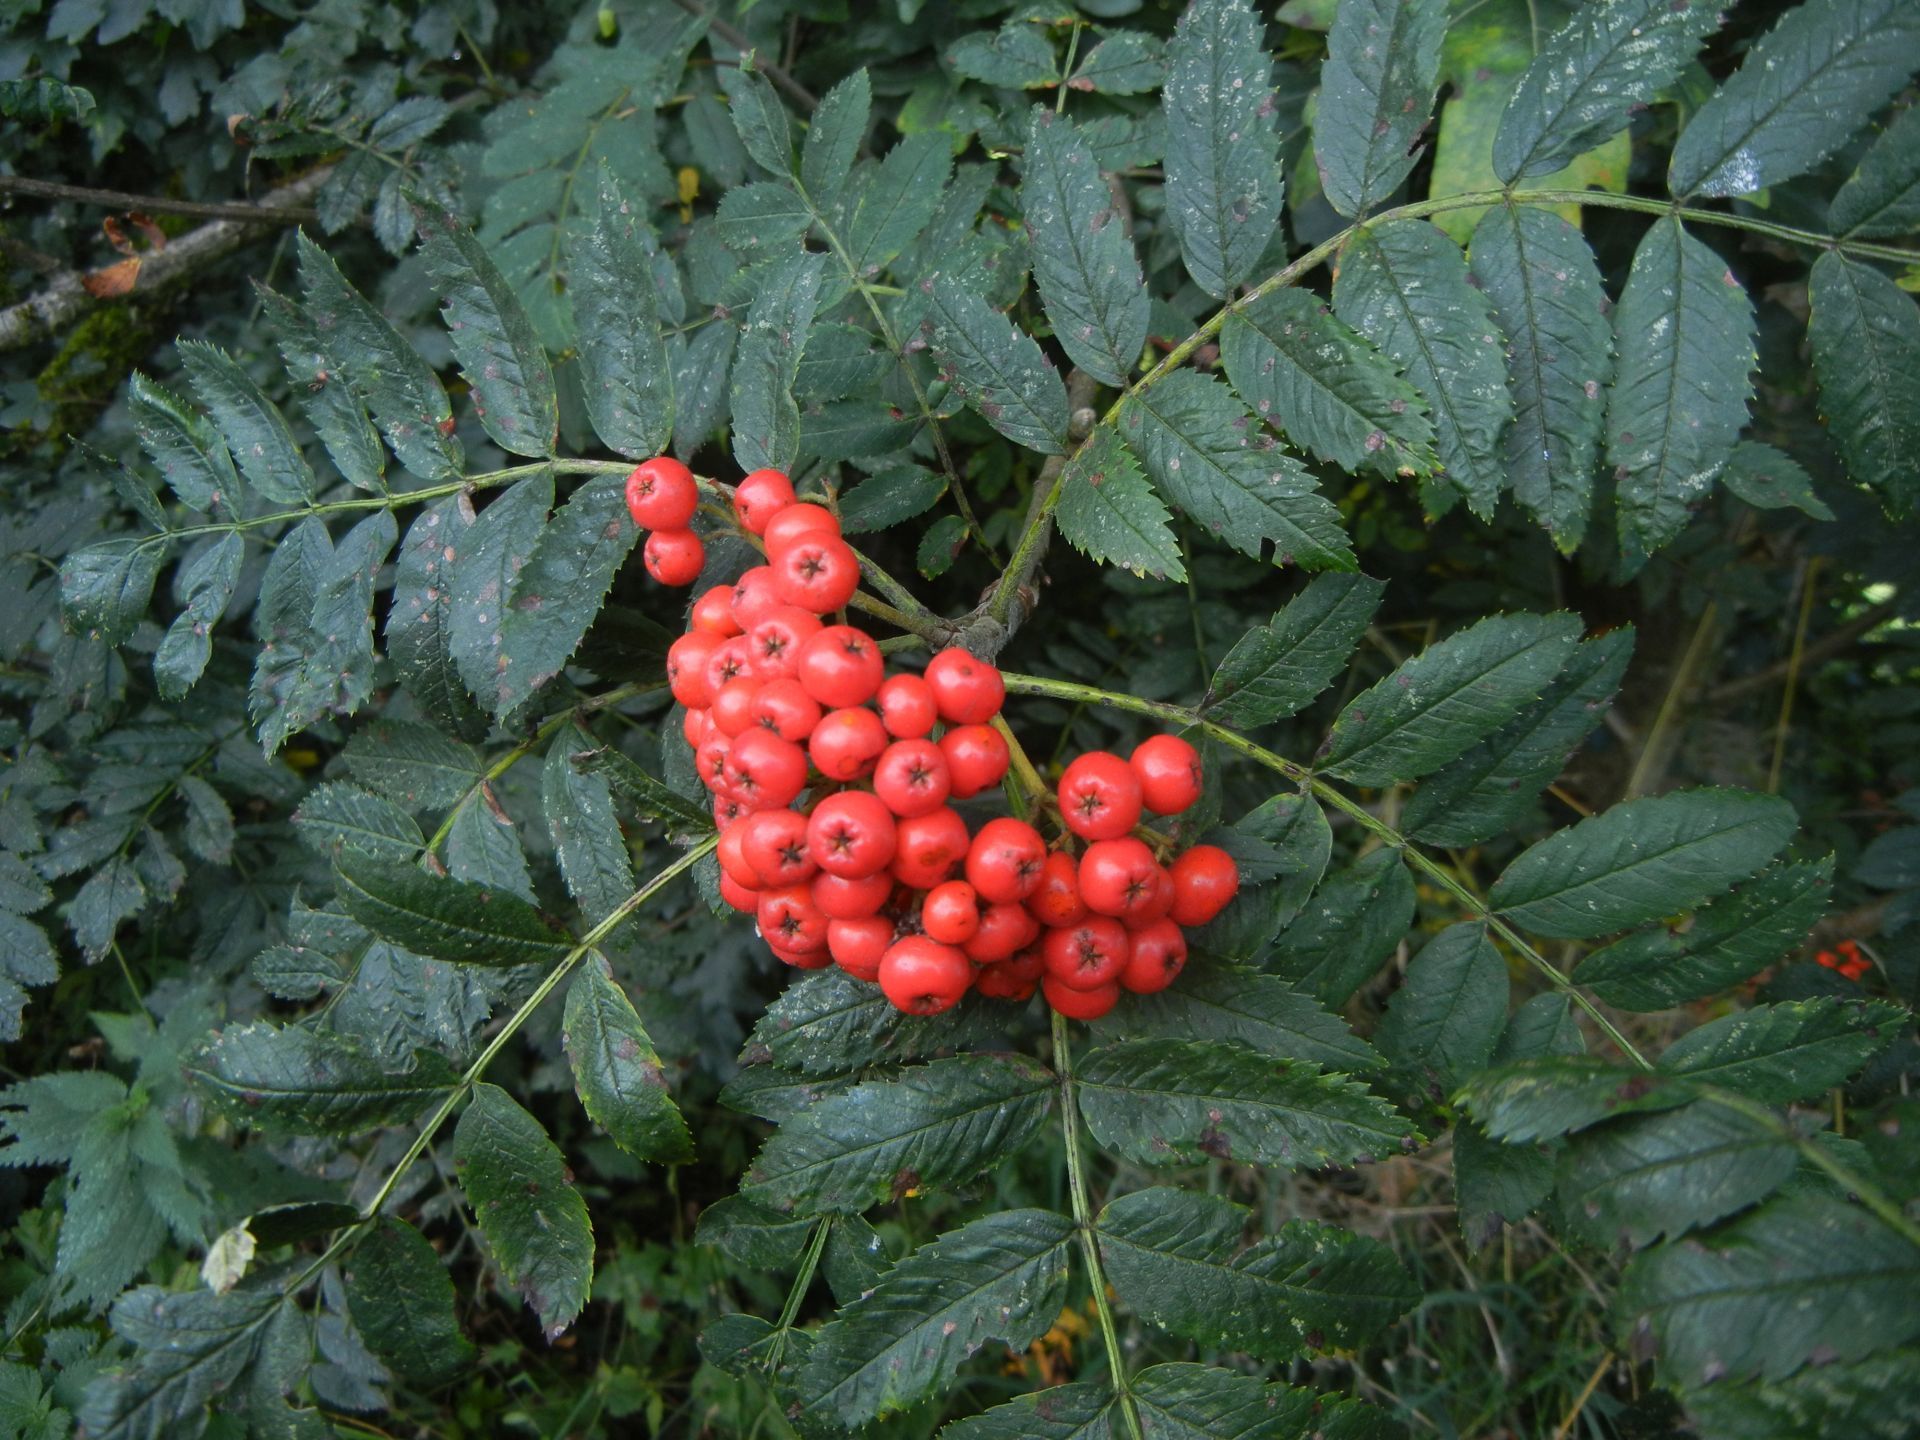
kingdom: Plantae
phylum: Tracheophyta
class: Magnoliopsida
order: Rosales
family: Rosaceae
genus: Sorbus
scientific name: Sorbus aucuparia
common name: Rowan
